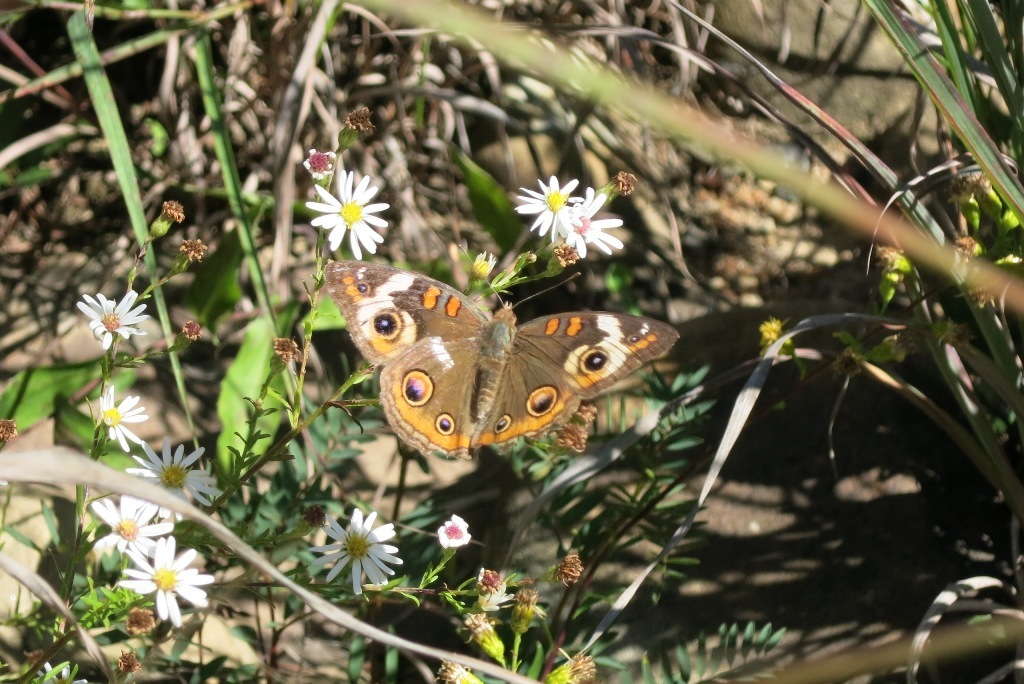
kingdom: Animalia
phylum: Arthropoda
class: Insecta
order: Lepidoptera
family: Nymphalidae
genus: Junonia
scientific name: Junonia coenia
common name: Common buckeye
